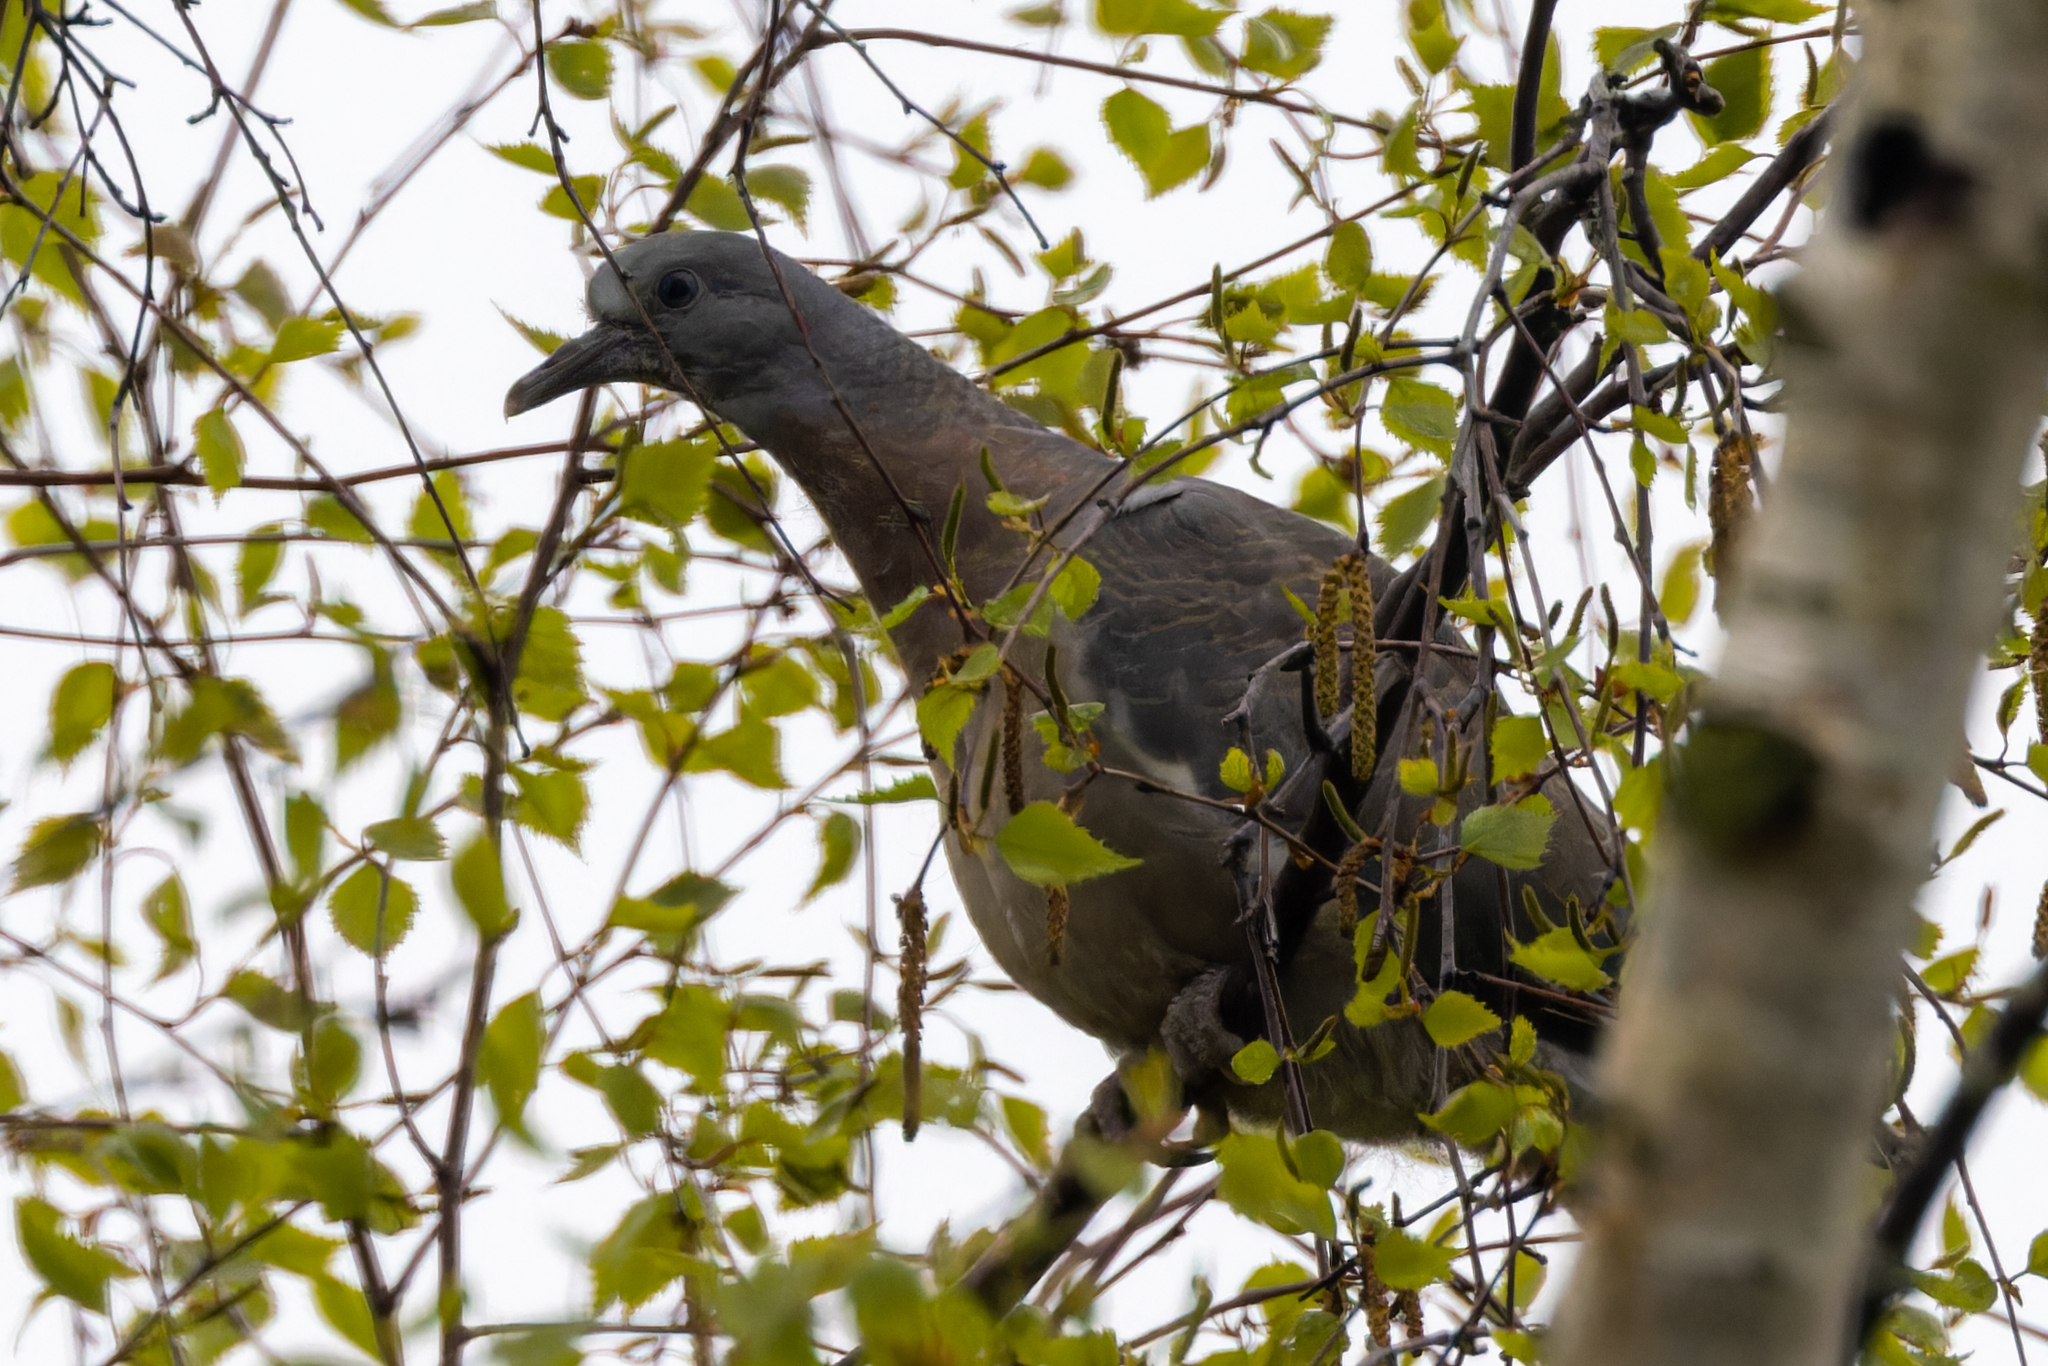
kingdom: Animalia
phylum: Chordata
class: Aves
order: Columbiformes
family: Columbidae
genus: Columba
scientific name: Columba palumbus
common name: Common wood pigeon
